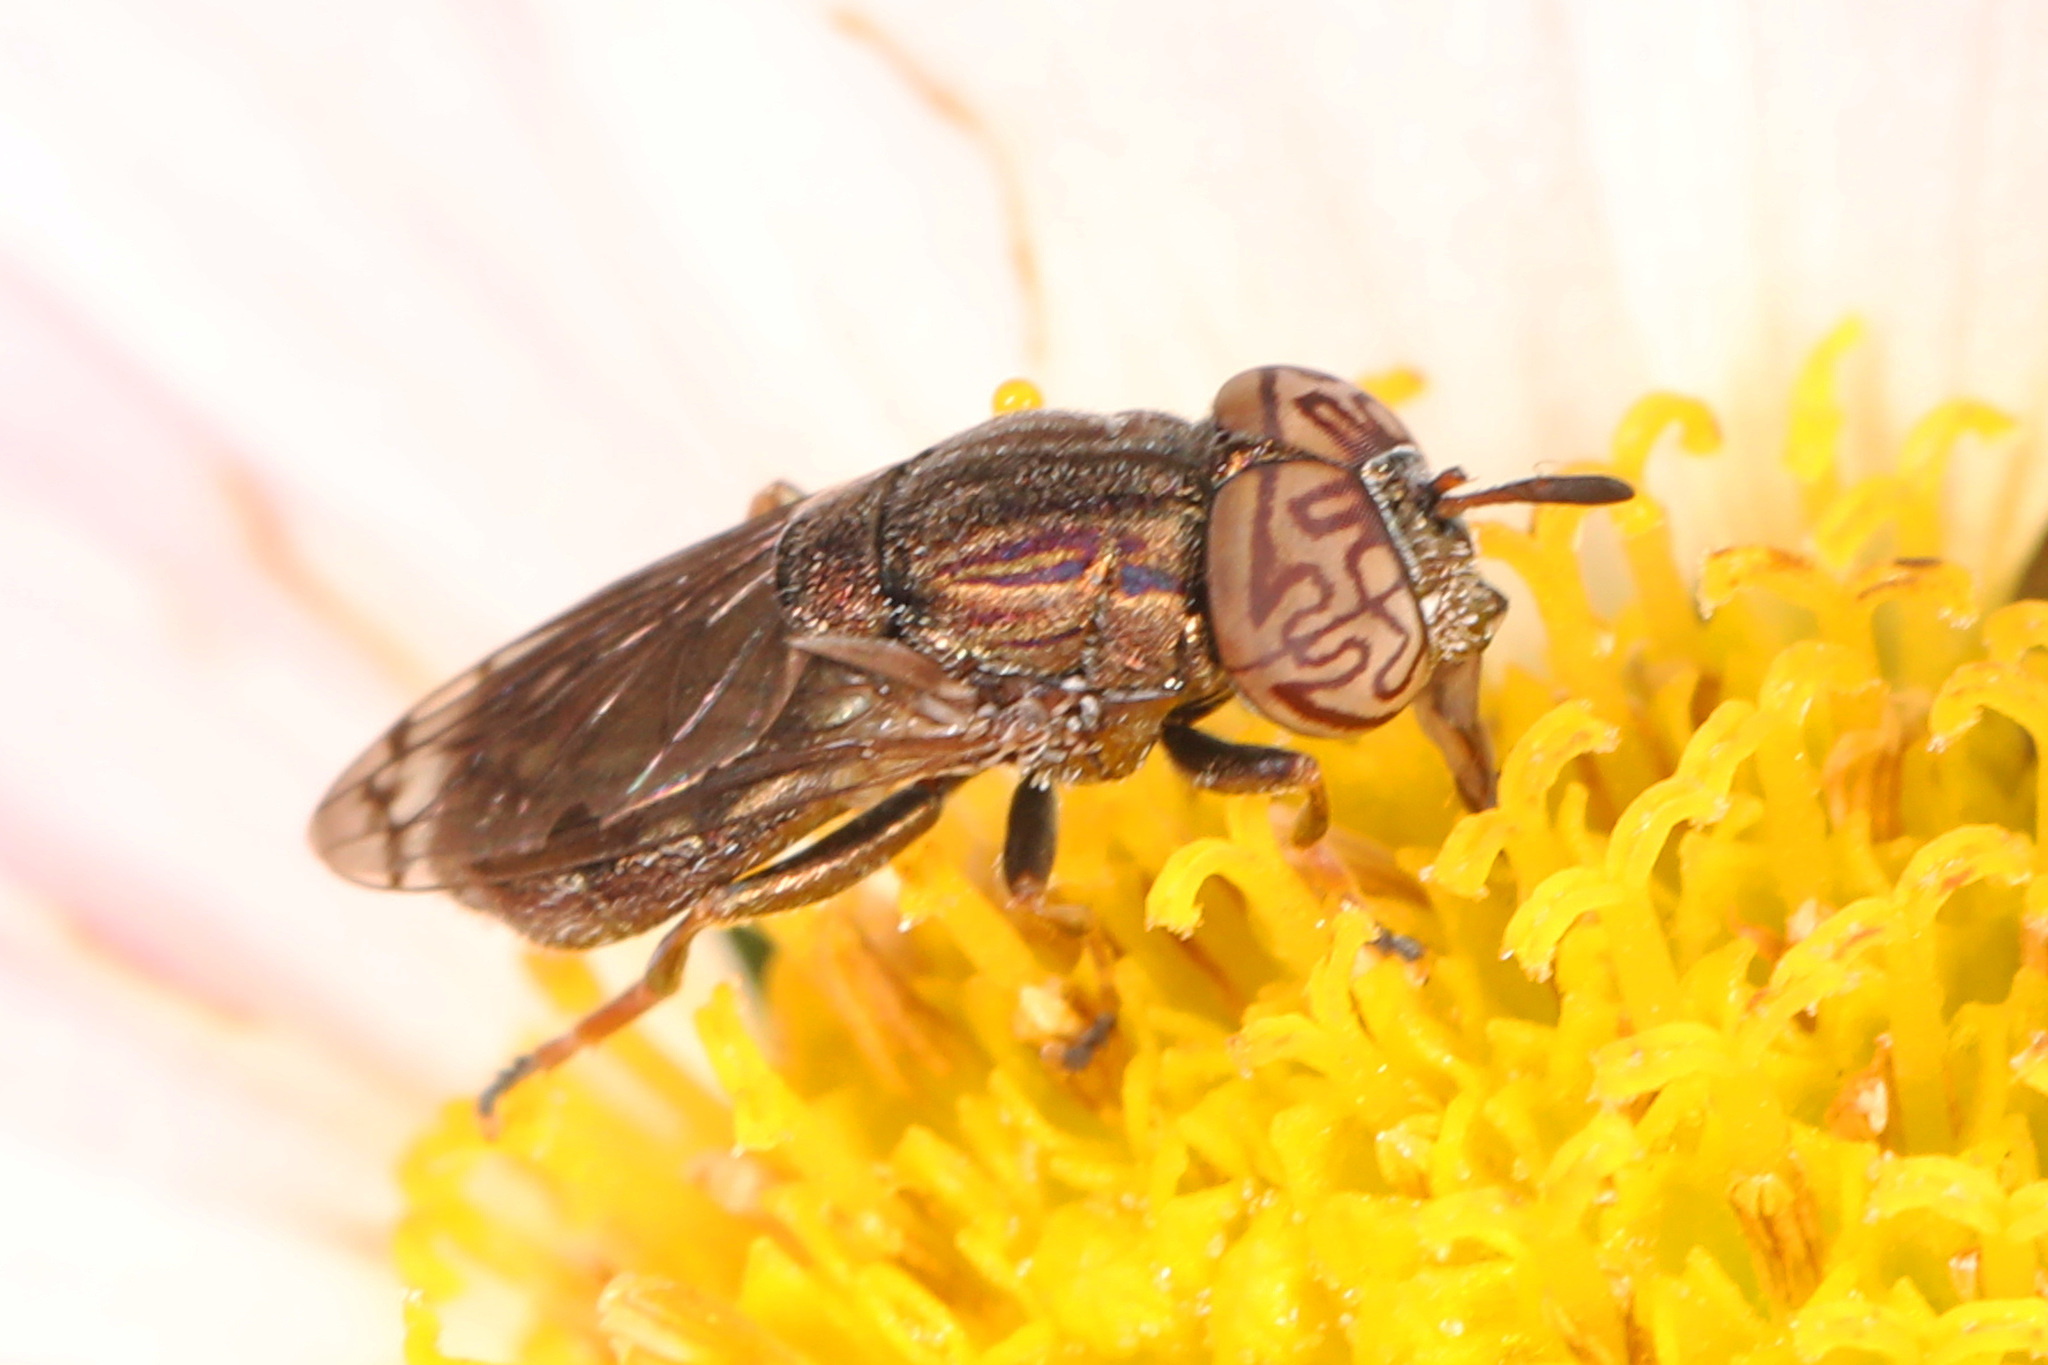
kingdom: Animalia
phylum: Arthropoda
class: Insecta
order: Diptera
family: Syrphidae
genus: Orthonevra
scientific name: Orthonevra nitida
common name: Wavy mucksucker
